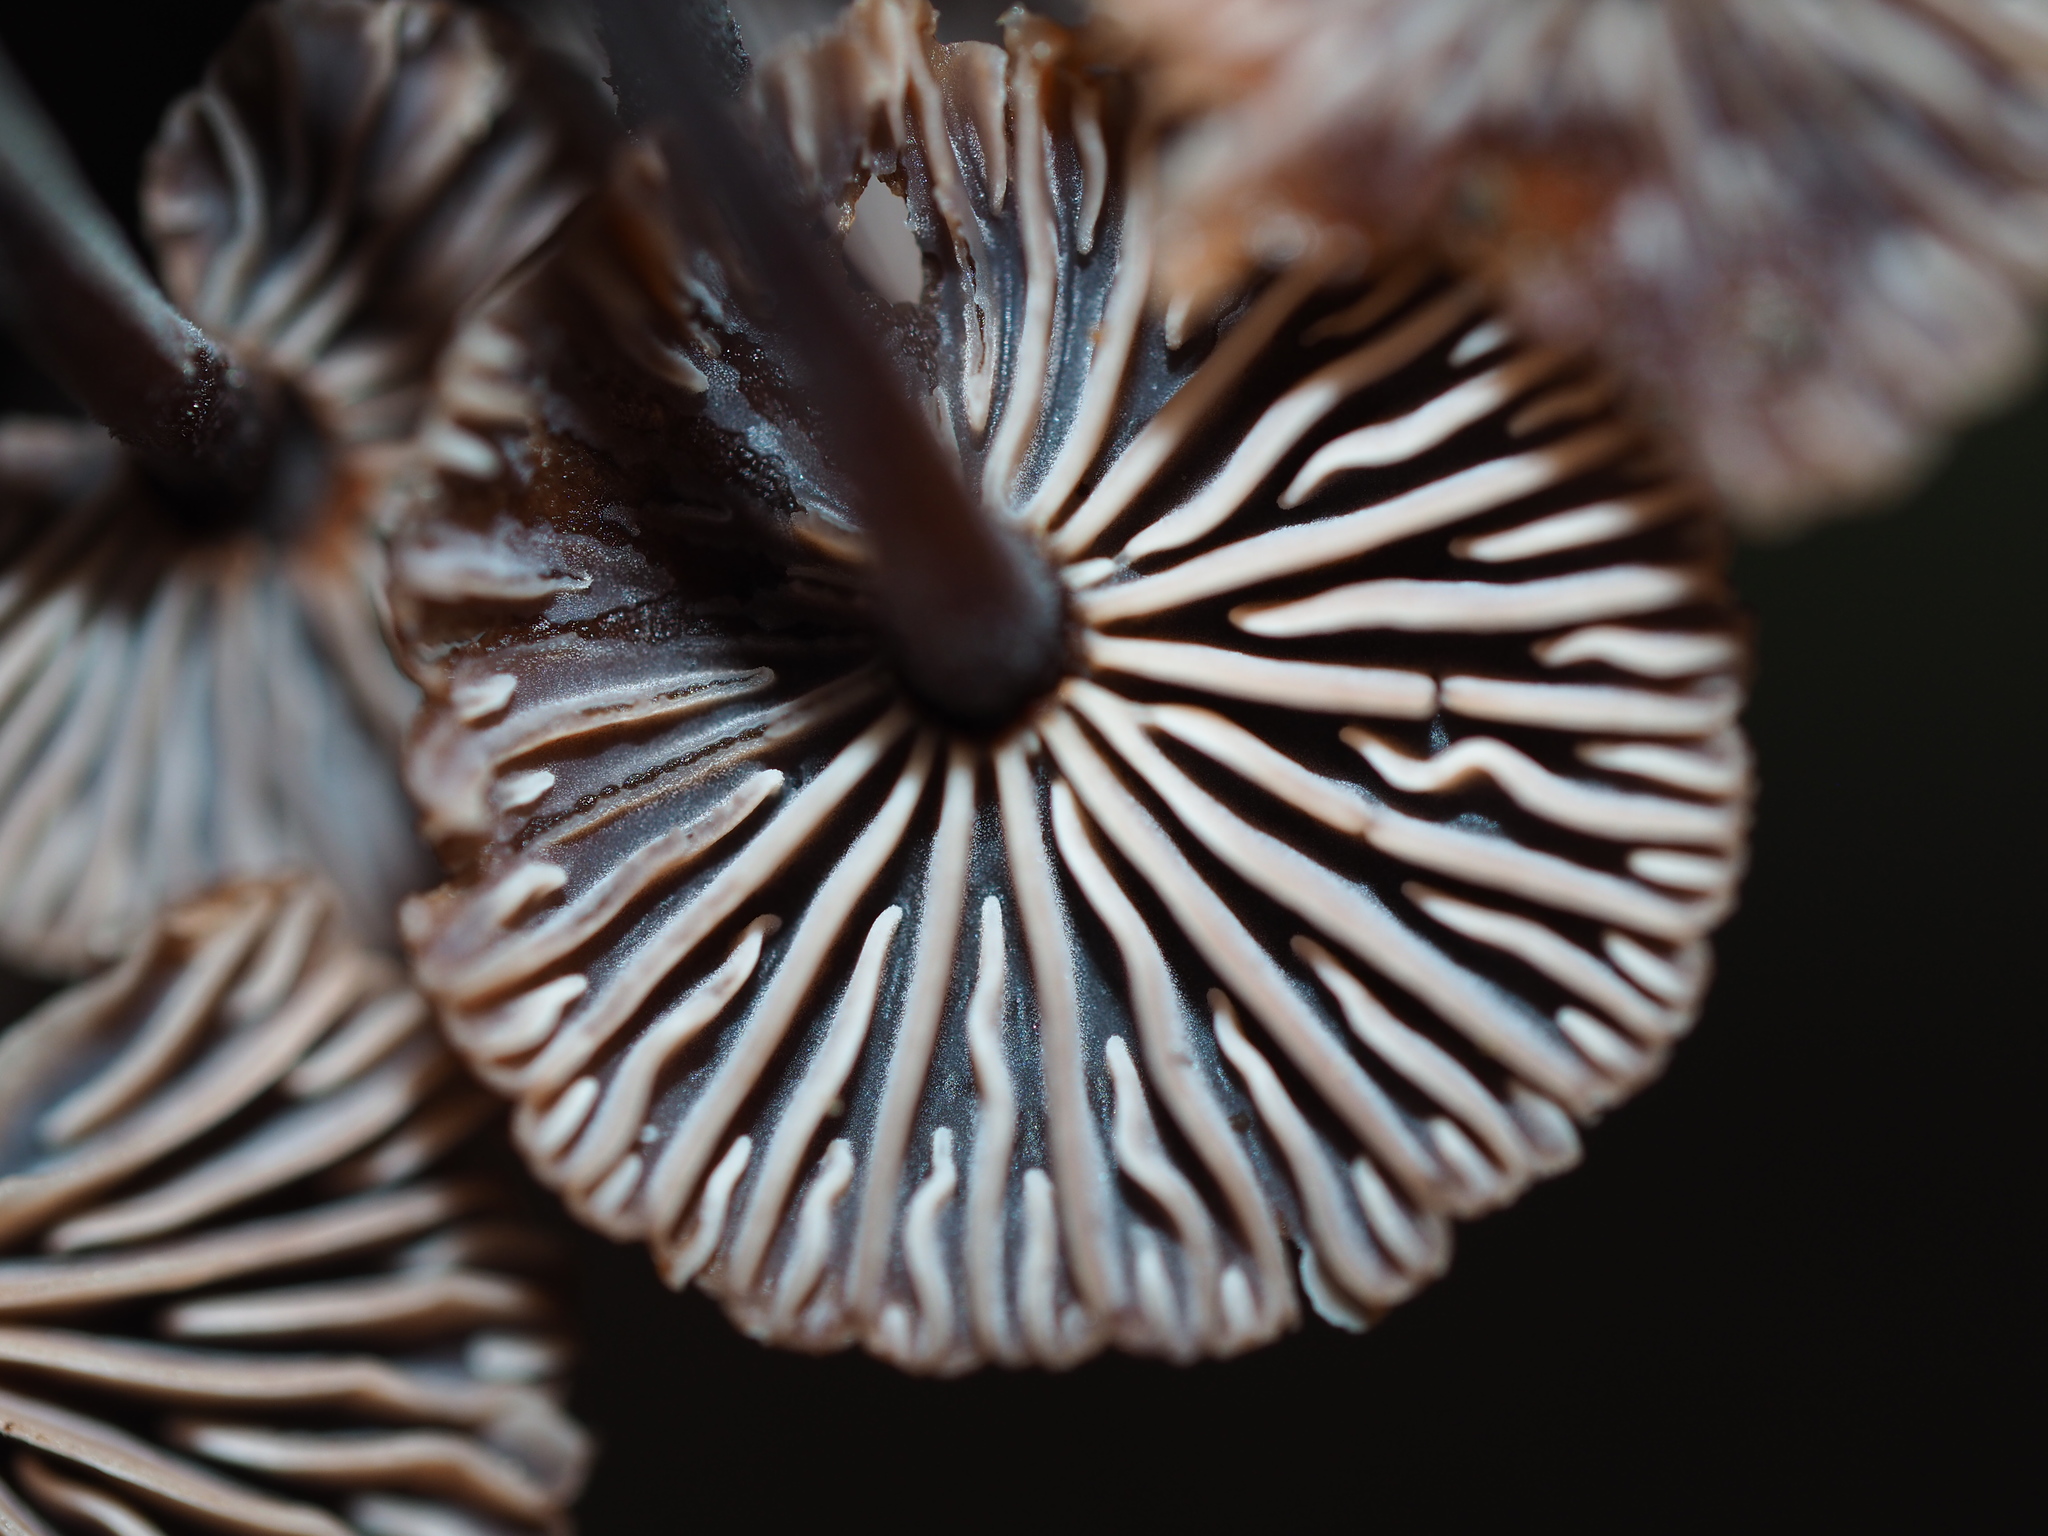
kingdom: Fungi
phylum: Basidiomycota
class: Agaricomycetes
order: Agaricales
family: Omphalotaceae
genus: Gymnopus
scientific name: Gymnopus ceraceicola
